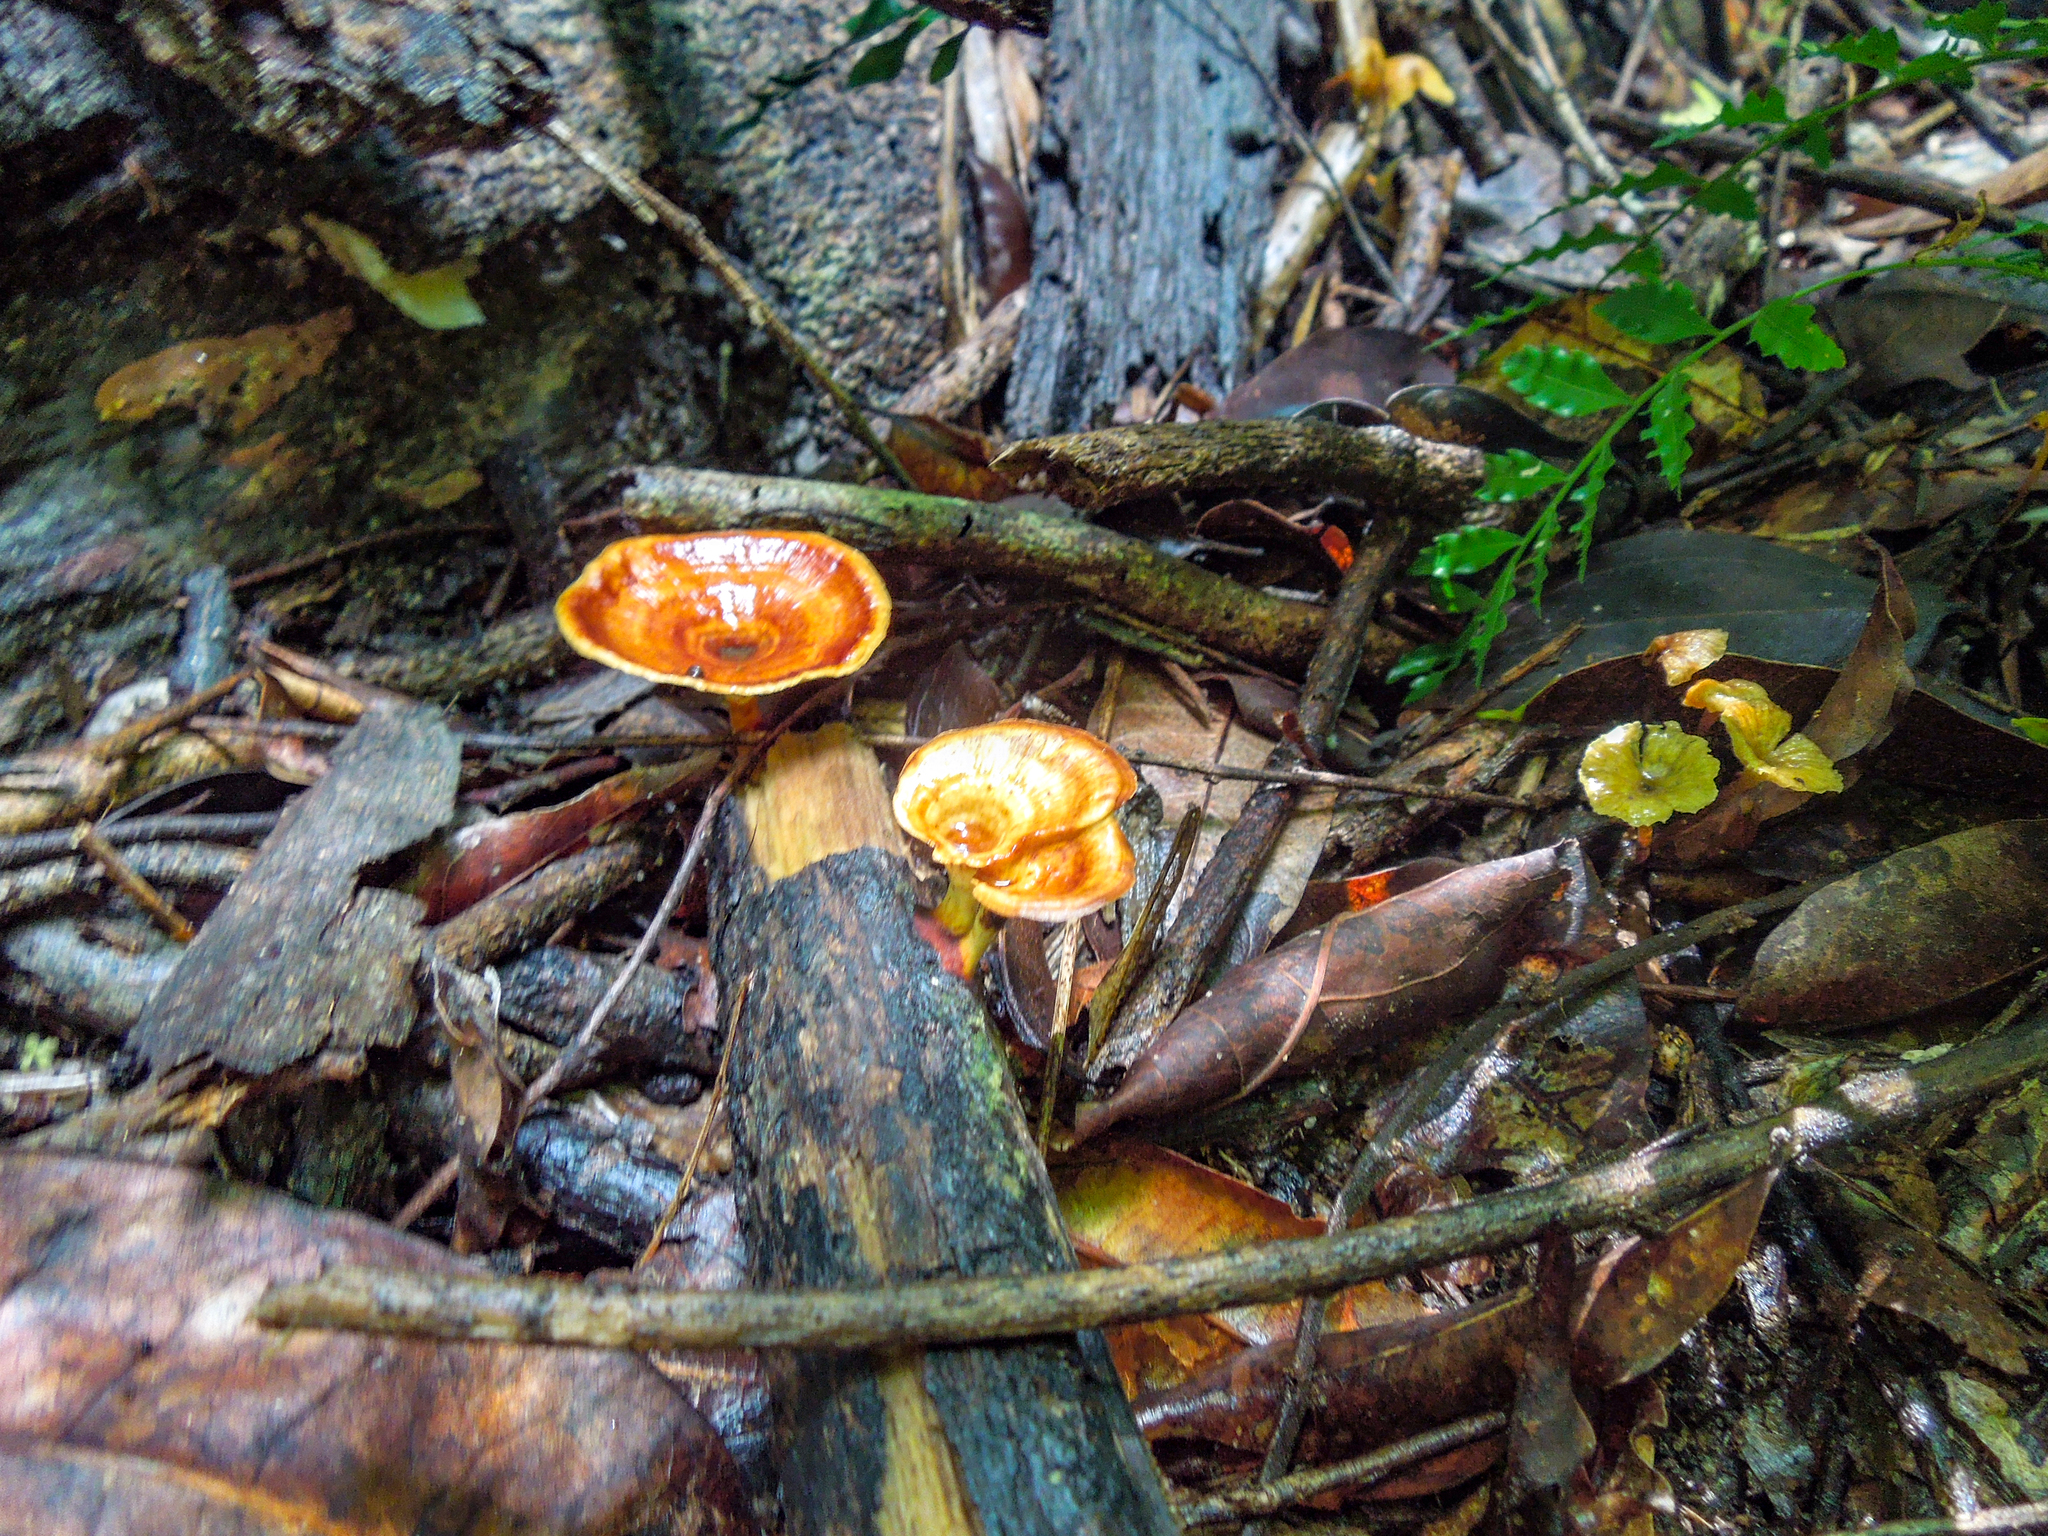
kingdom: Fungi
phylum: Basidiomycota
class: Agaricomycetes
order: Polyporales
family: Polyporaceae
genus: Microporus
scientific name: Microporus xanthopus
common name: Yellow-stemmed micropore
